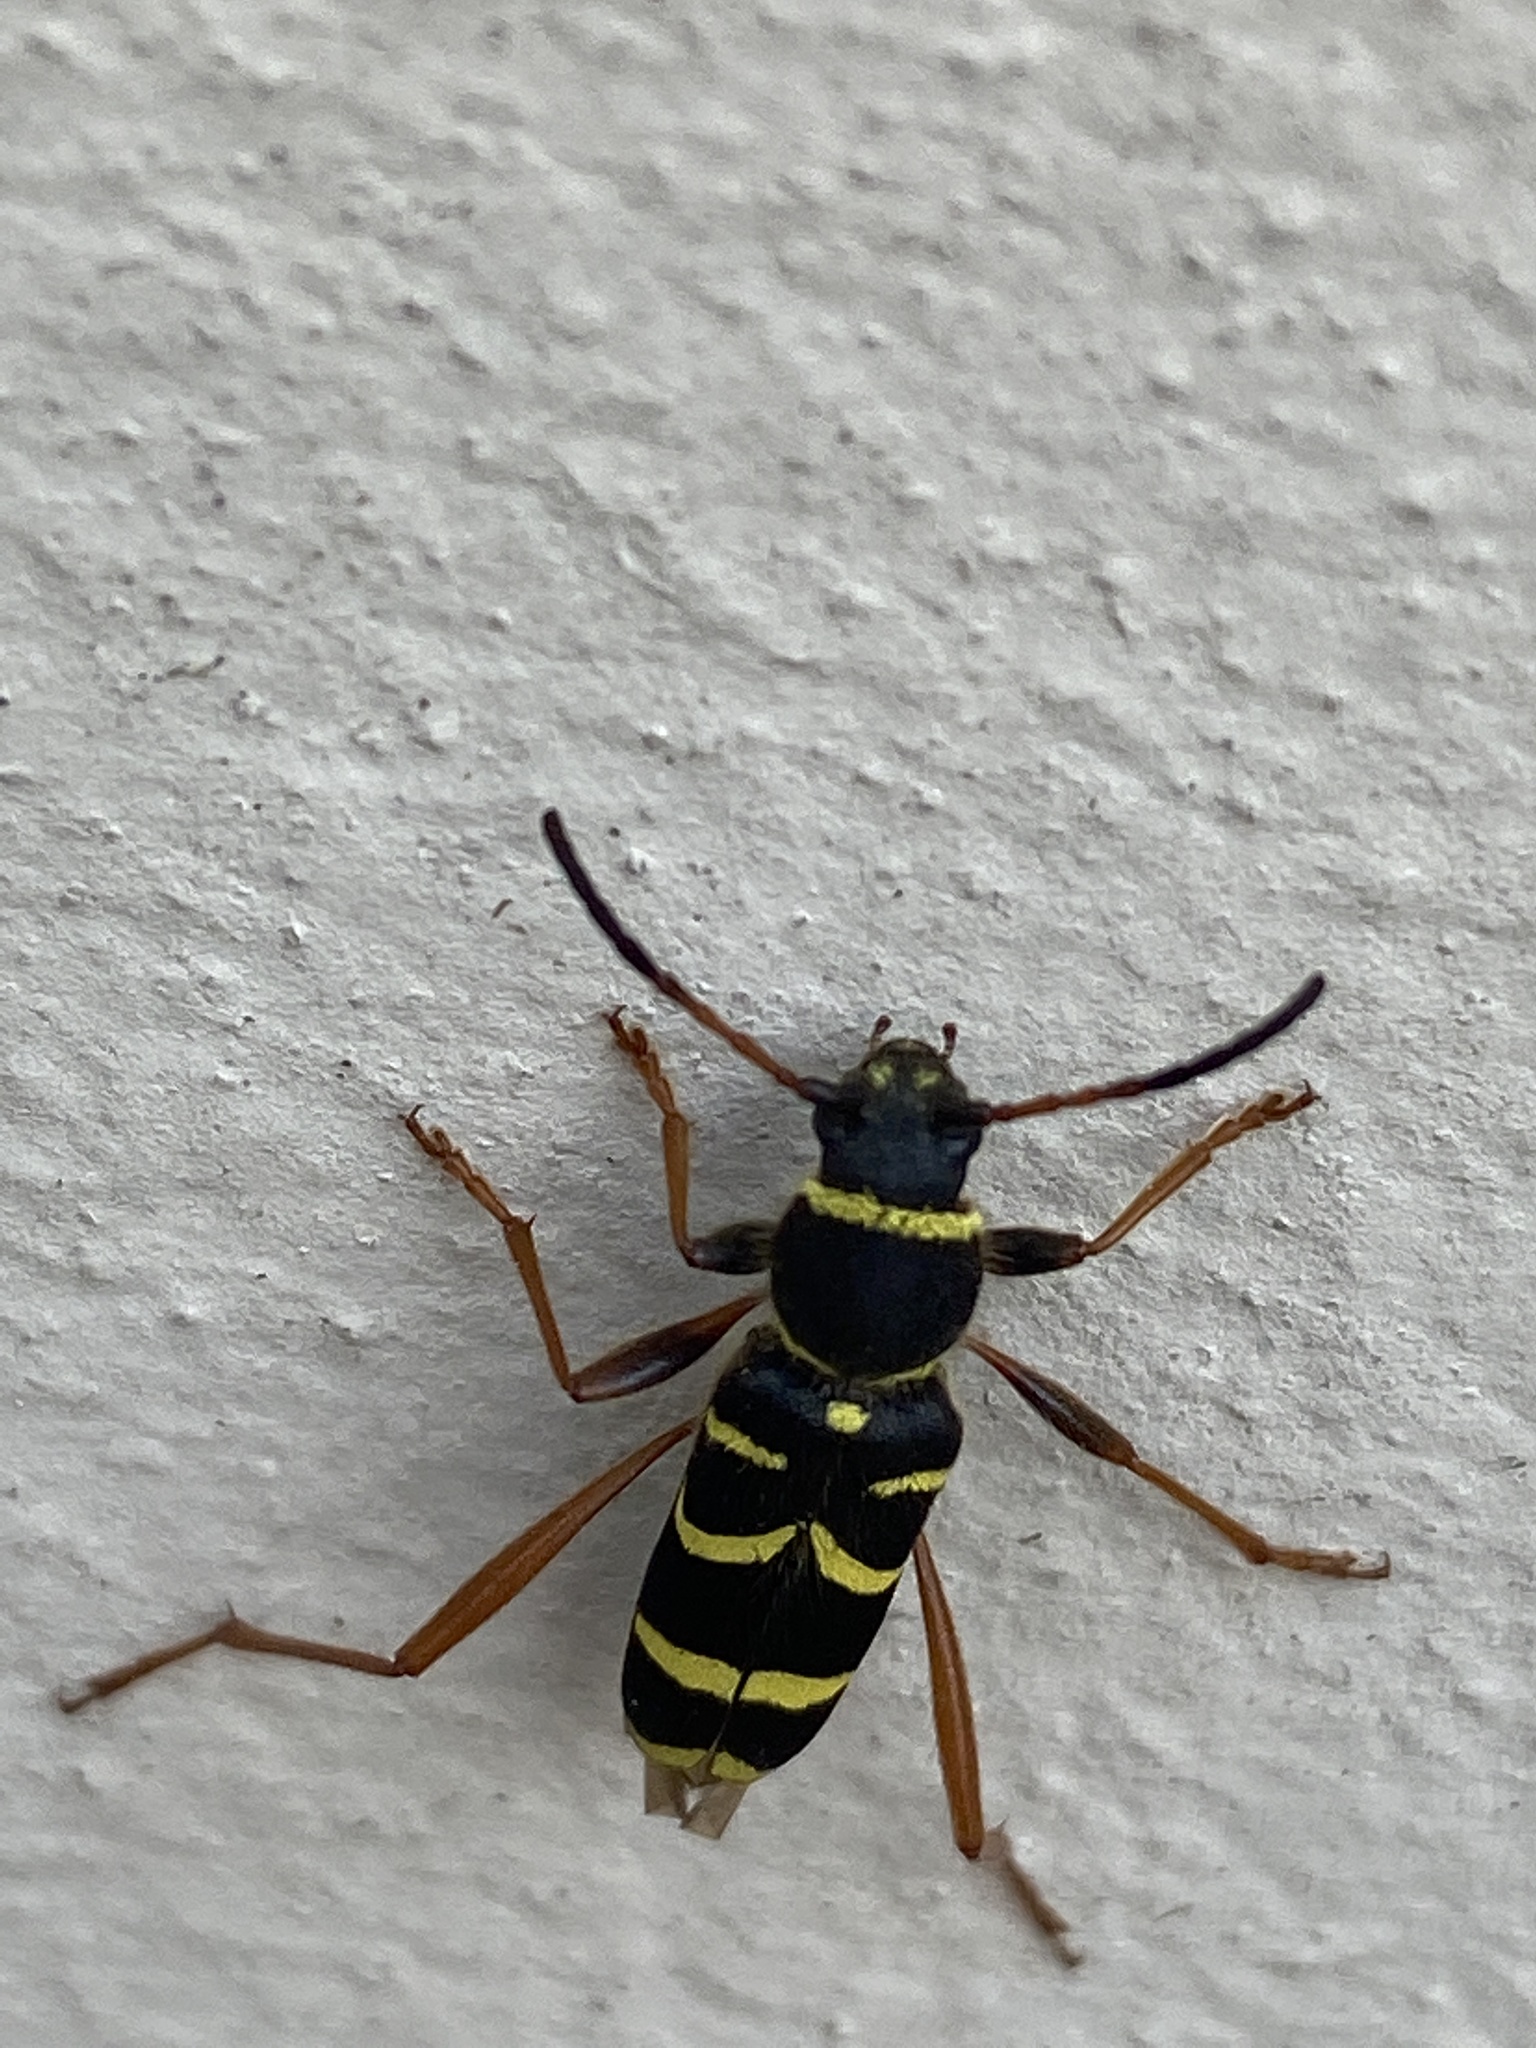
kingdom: Animalia
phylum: Arthropoda
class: Insecta
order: Coleoptera
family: Cerambycidae
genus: Clytus
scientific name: Clytus arietis
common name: Wasp beetle
